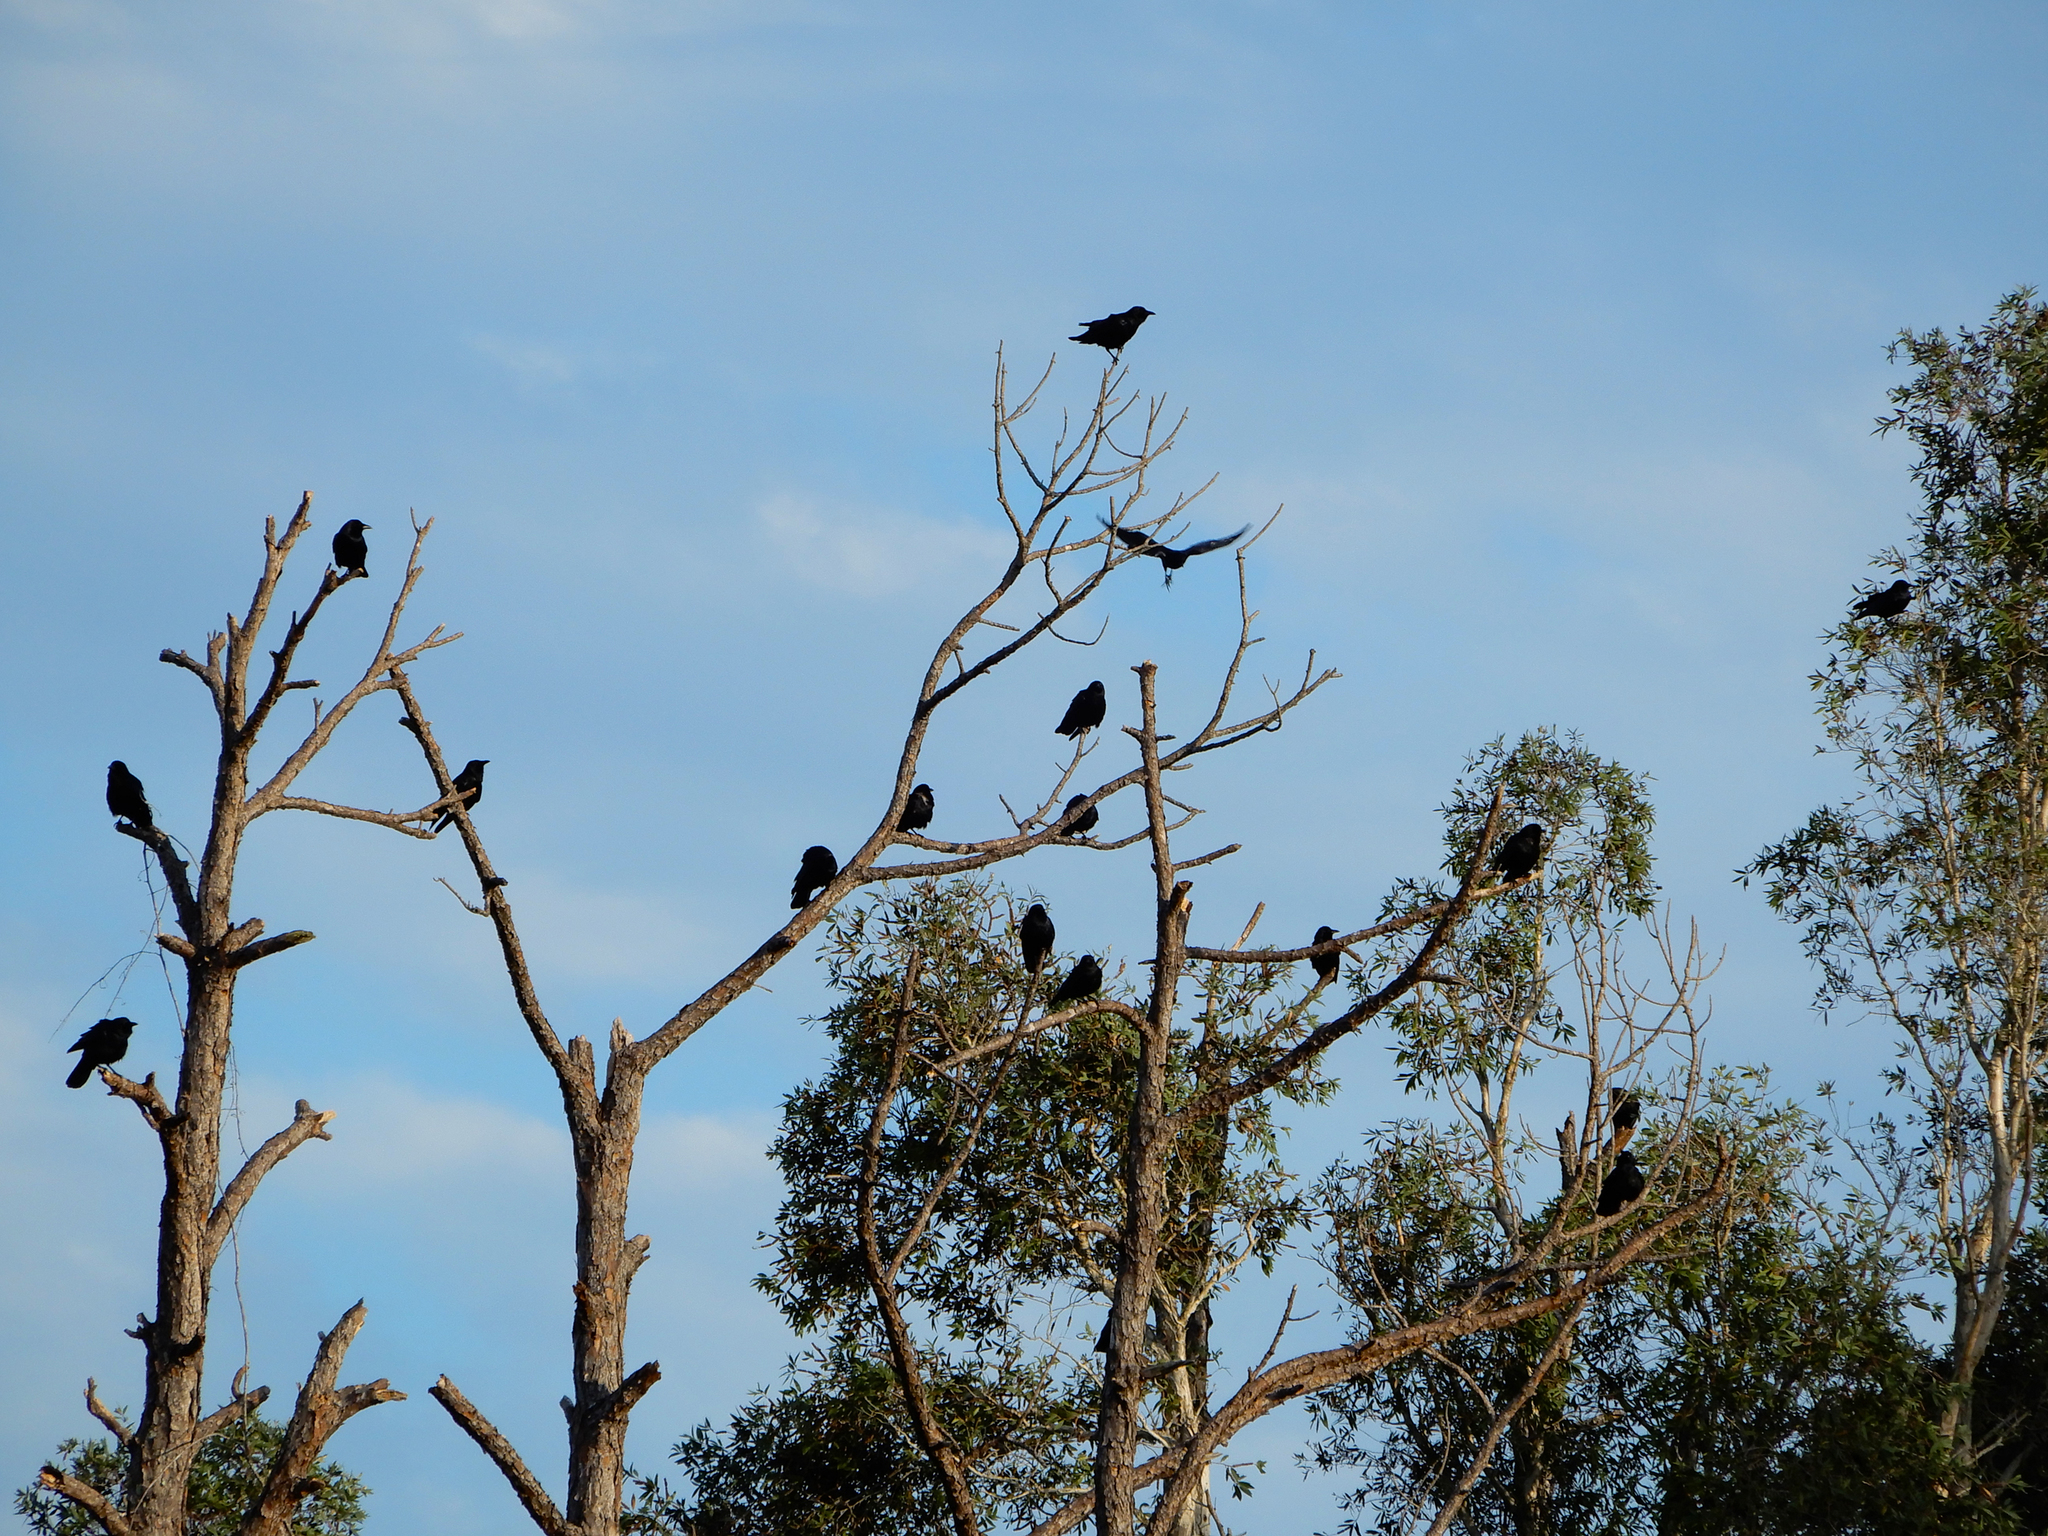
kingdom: Animalia
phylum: Chordata
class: Aves
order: Passeriformes
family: Corvidae
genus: Corvus
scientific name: Corvus ossifragus
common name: Fish crow
